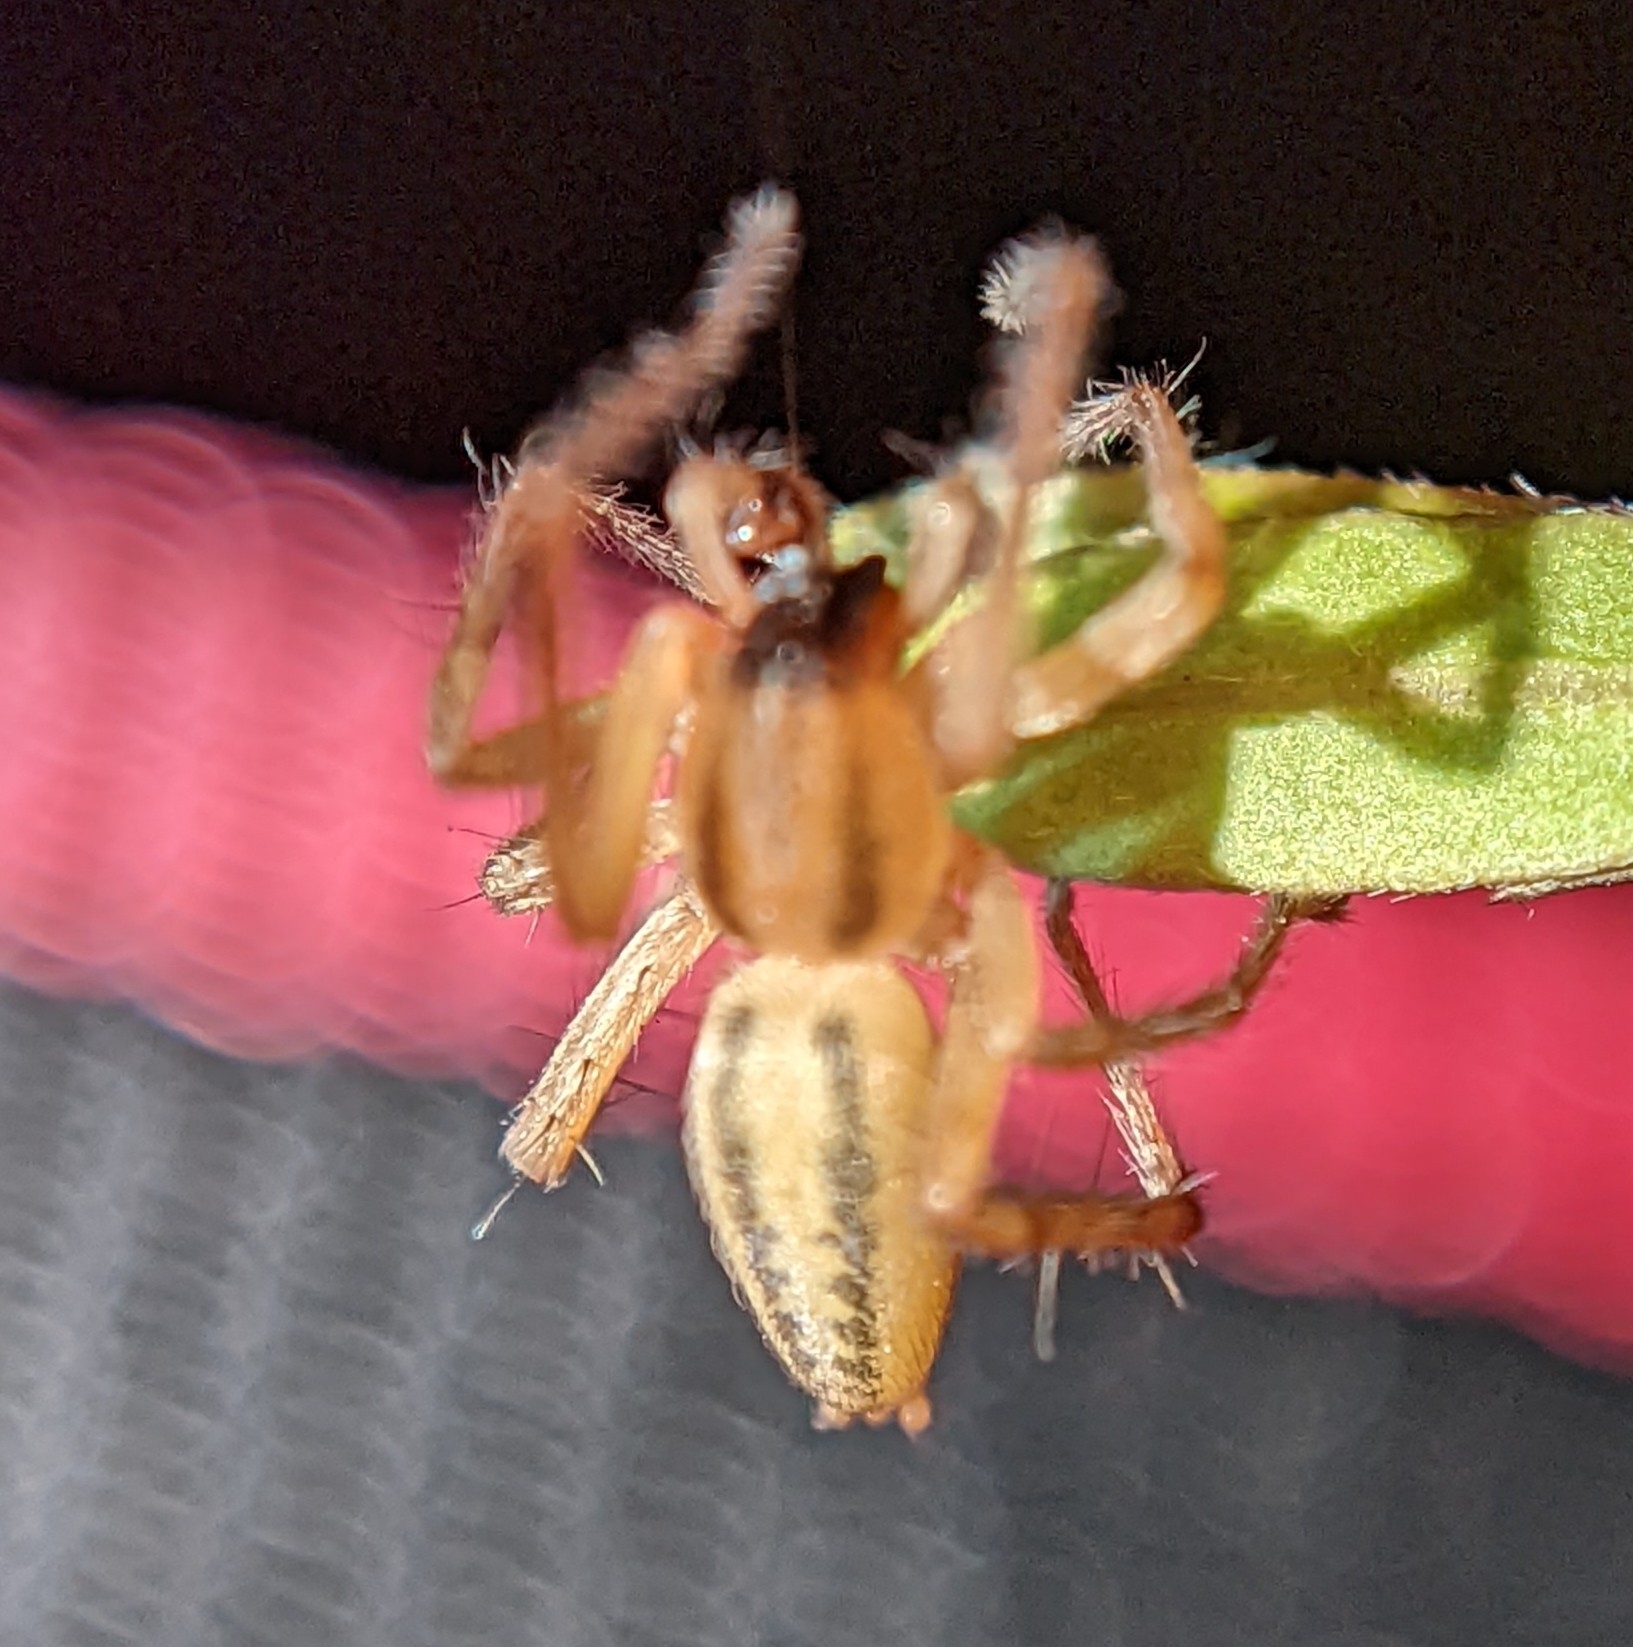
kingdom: Animalia
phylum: Arthropoda
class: Arachnida
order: Araneae
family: Anyphaenidae
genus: Hibana
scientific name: Hibana incursa
